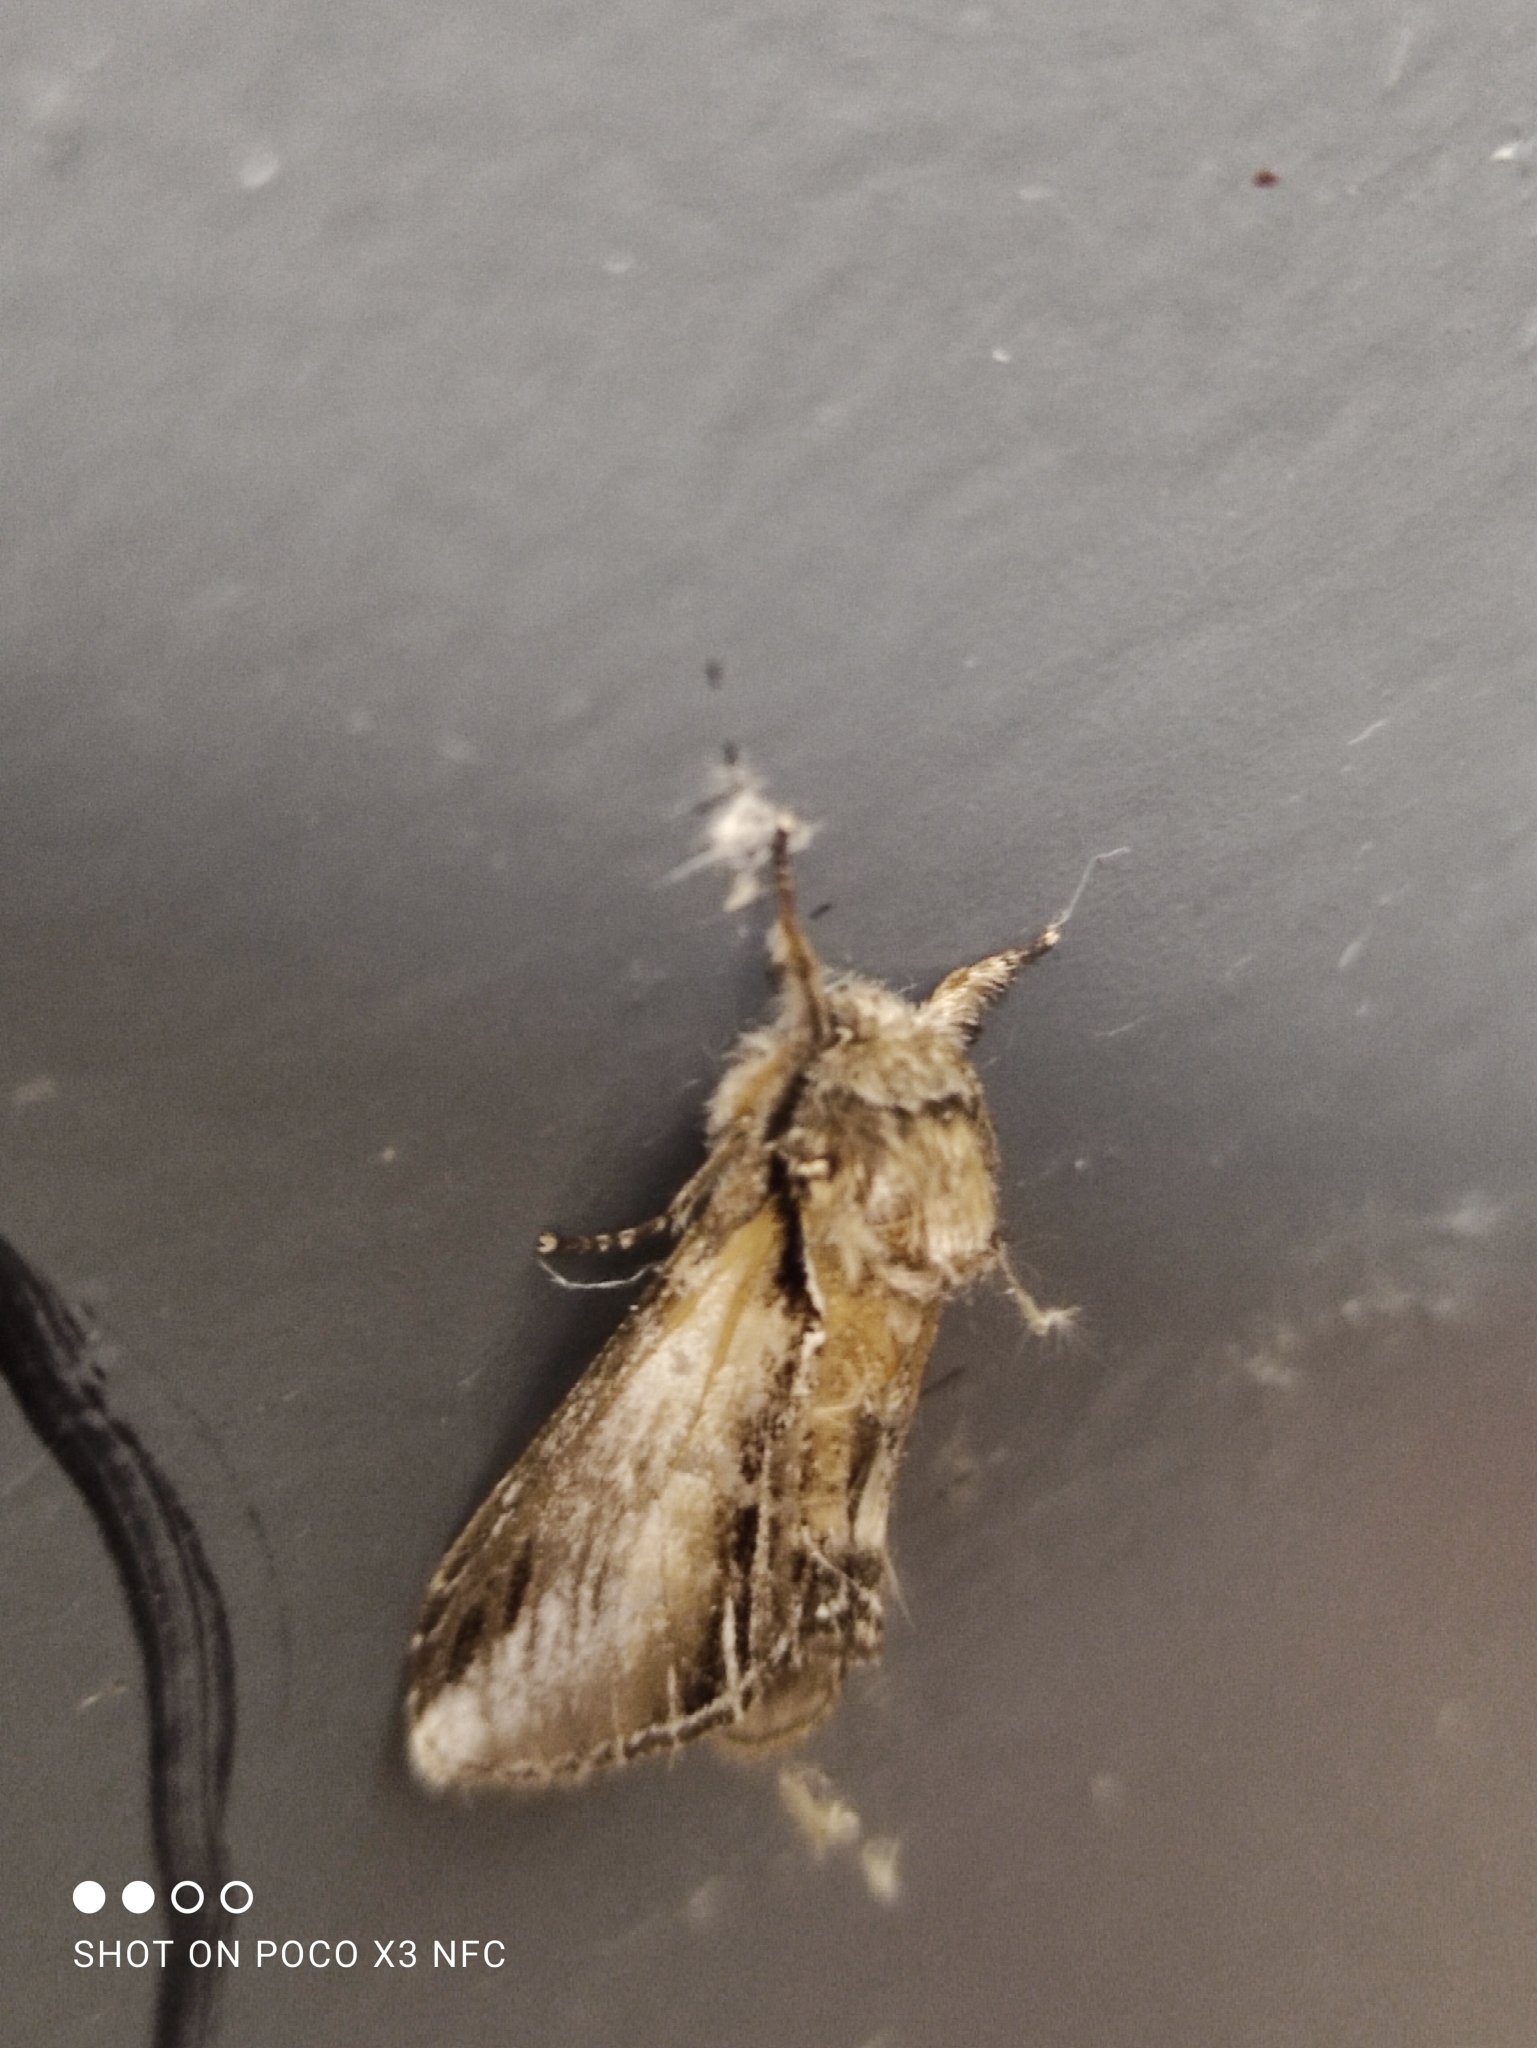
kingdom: Animalia
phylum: Arthropoda
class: Insecta
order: Lepidoptera
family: Notodontidae
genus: Pheosia
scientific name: Pheosia tremula
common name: Swallow prominent
